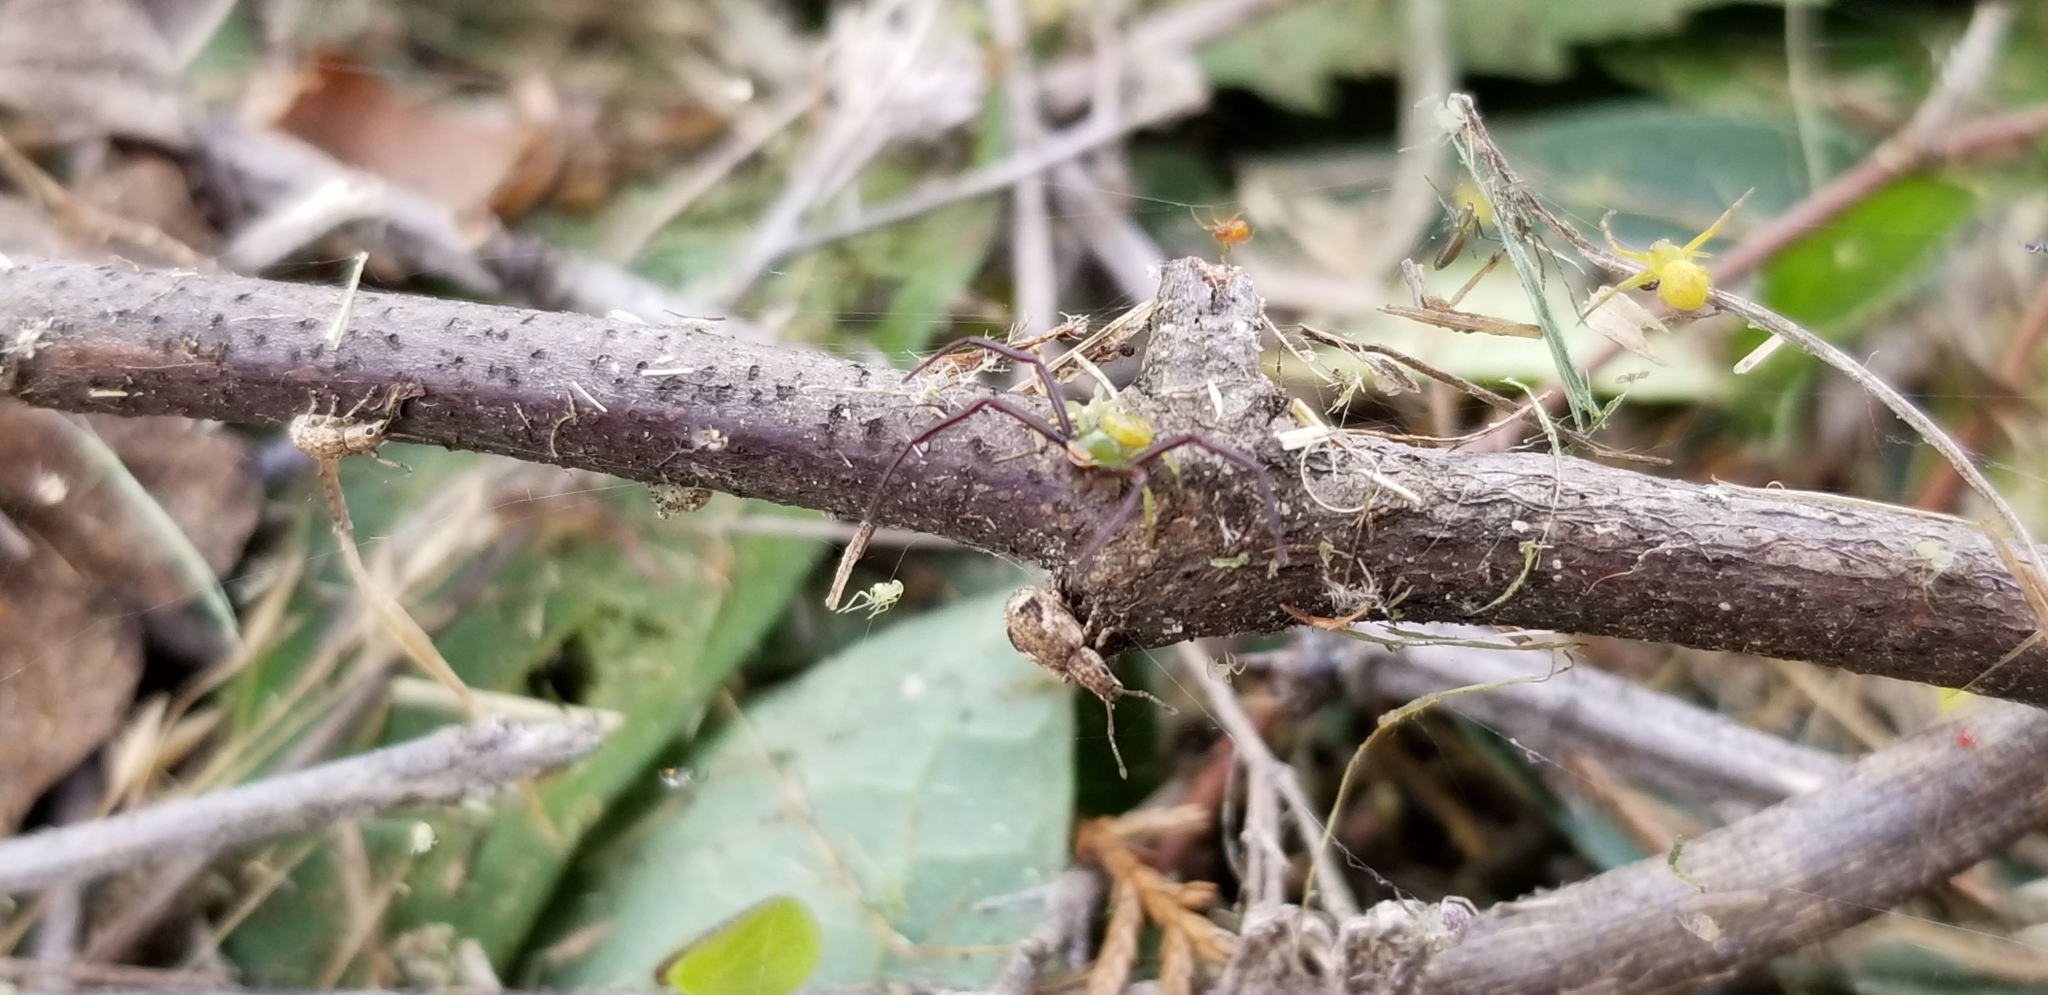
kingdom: Animalia
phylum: Arthropoda
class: Arachnida
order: Araneae
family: Thomisidae
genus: Misumenoides
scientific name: Misumenoides formosipes
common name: White-banded crab spider
